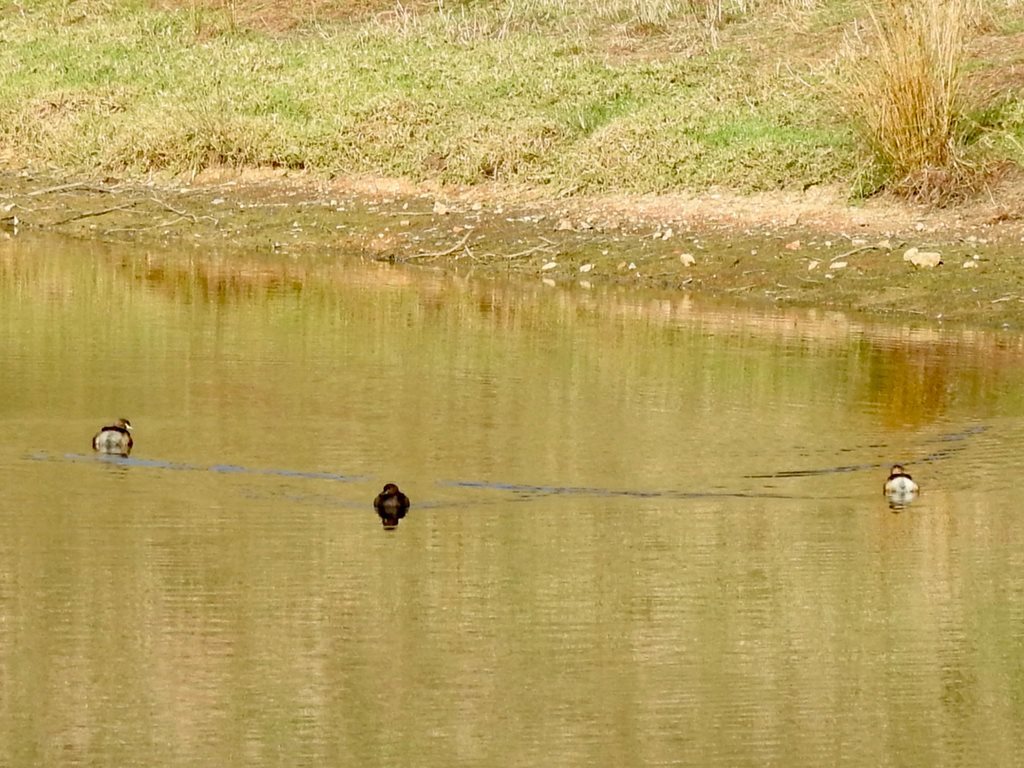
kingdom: Animalia
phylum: Chordata
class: Aves
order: Podicipediformes
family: Podicipedidae
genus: Tachybaptus
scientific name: Tachybaptus novaehollandiae
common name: Australasian grebe
